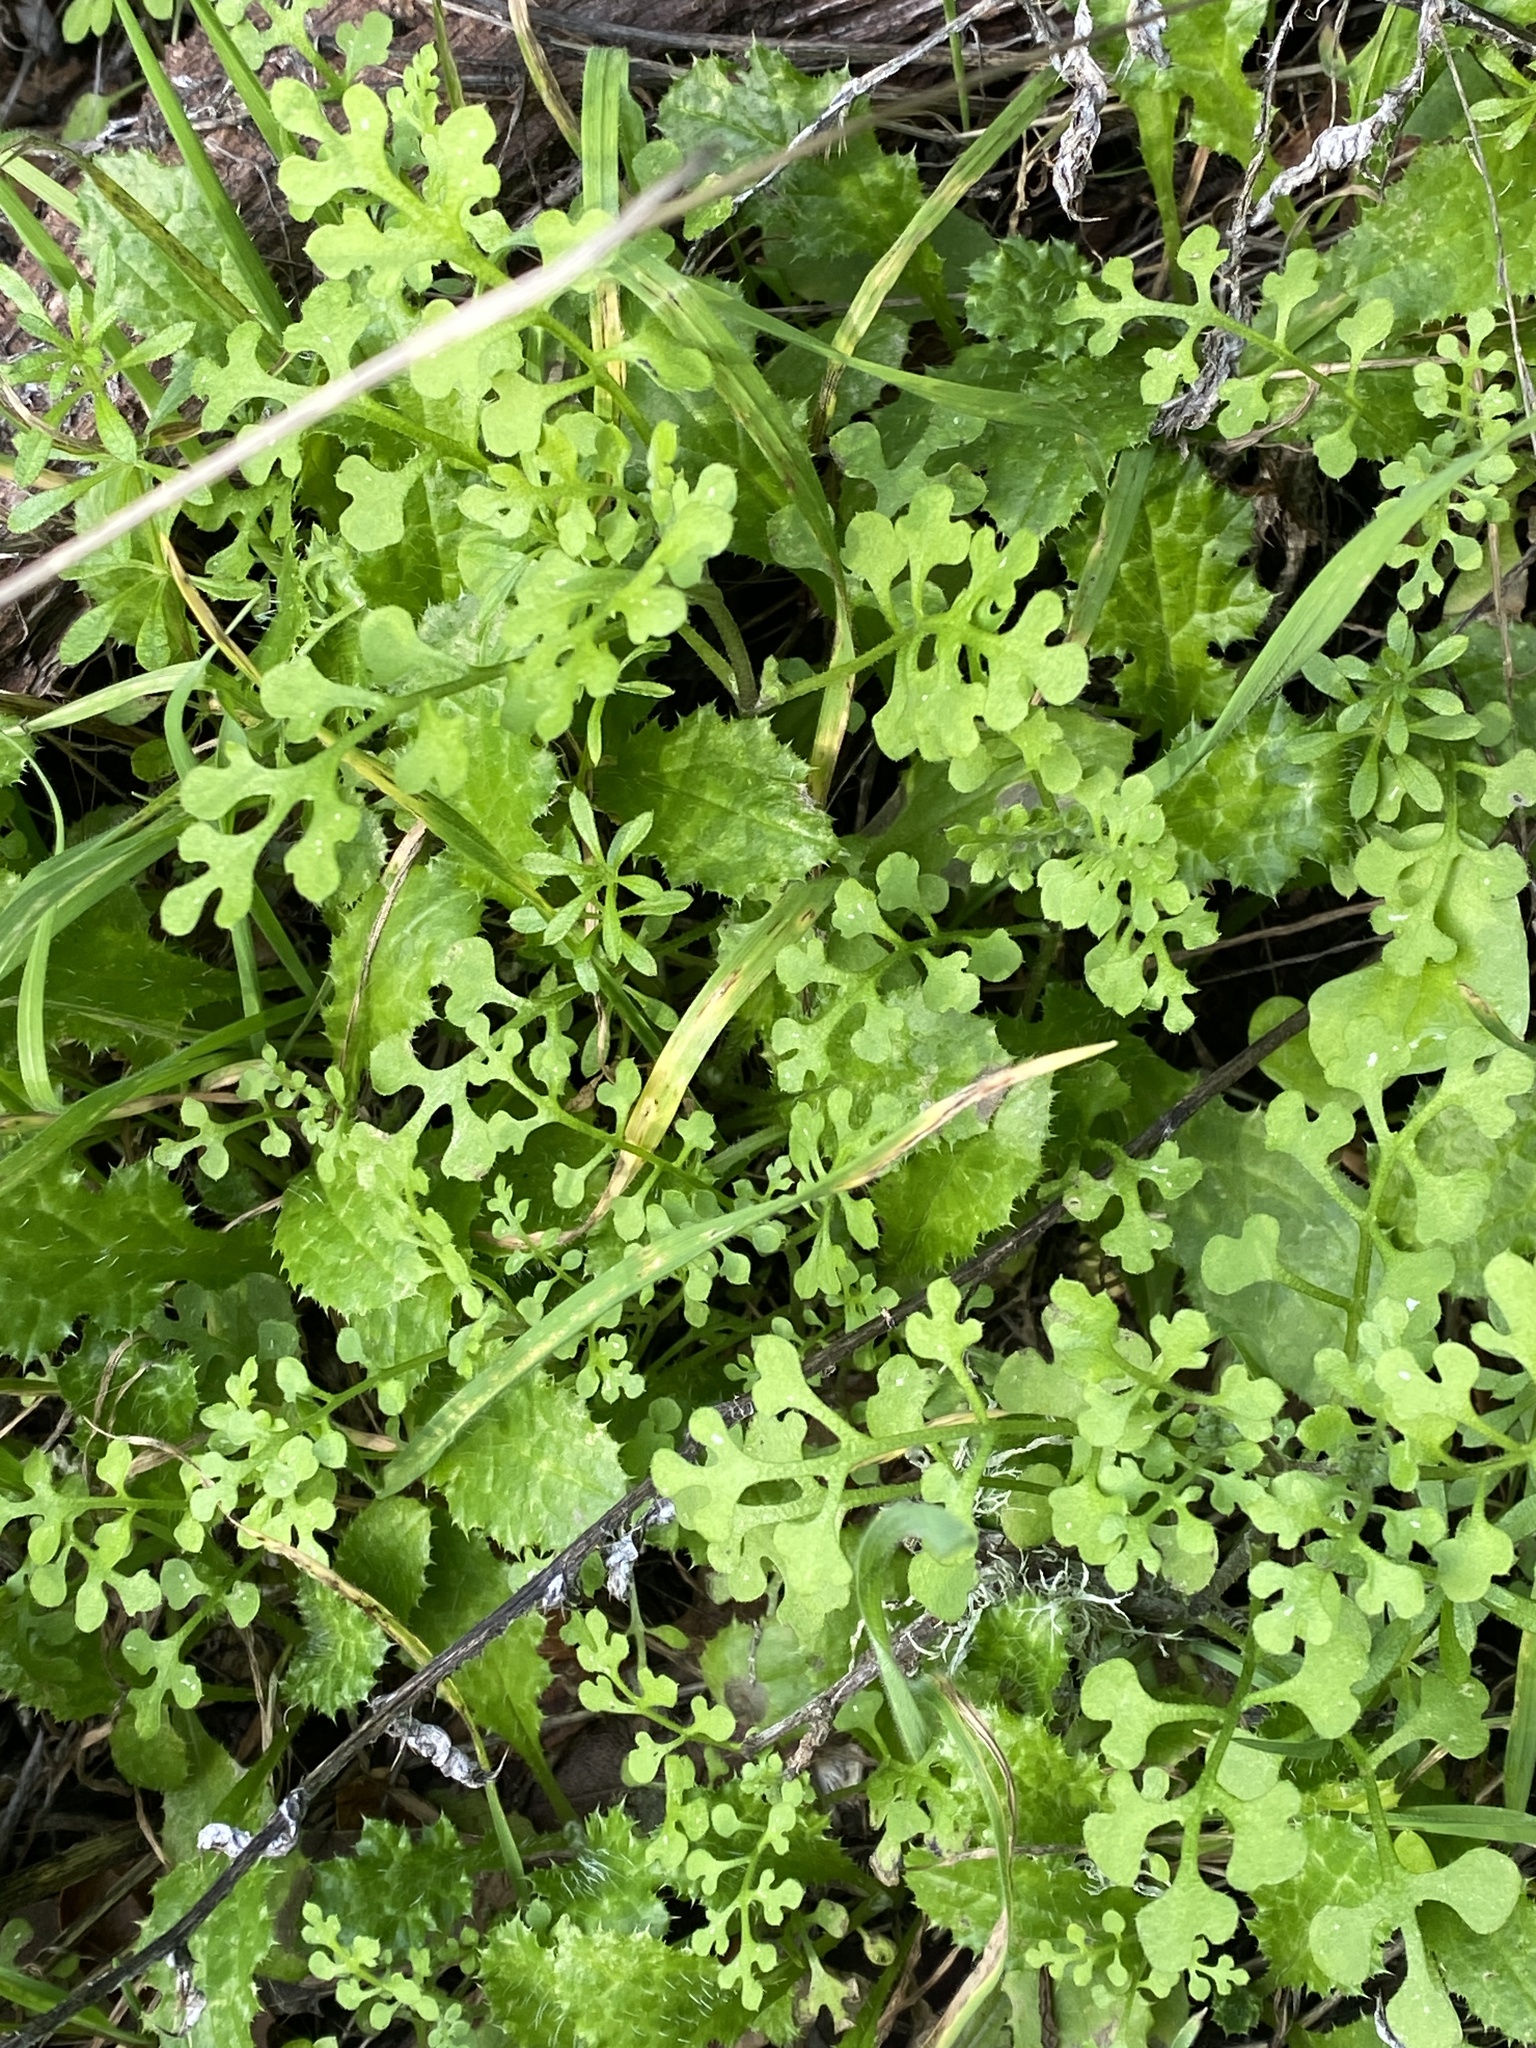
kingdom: Plantae
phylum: Tracheophyta
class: Magnoliopsida
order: Boraginales
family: Hydrophyllaceae
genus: Nemophila
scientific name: Nemophila heterophylla
